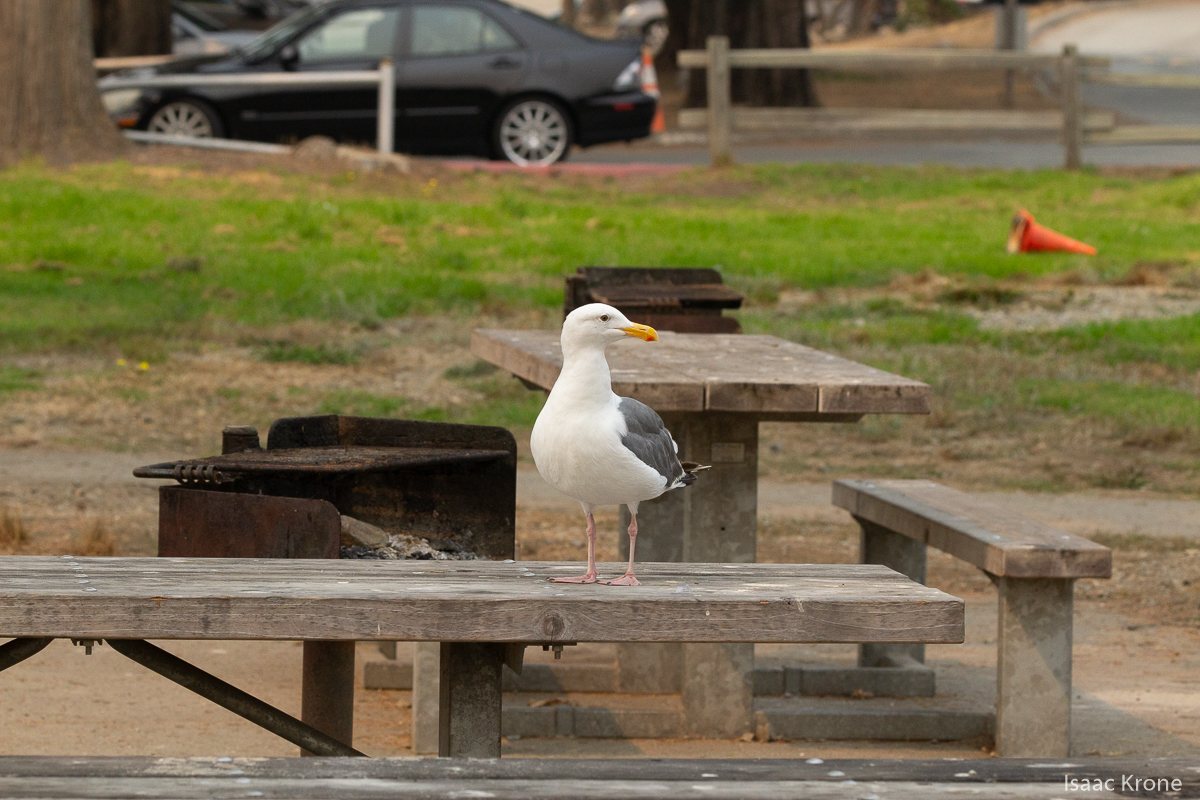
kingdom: Animalia
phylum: Chordata
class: Aves
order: Charadriiformes
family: Laridae
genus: Larus
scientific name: Larus occidentalis
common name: Western gull
